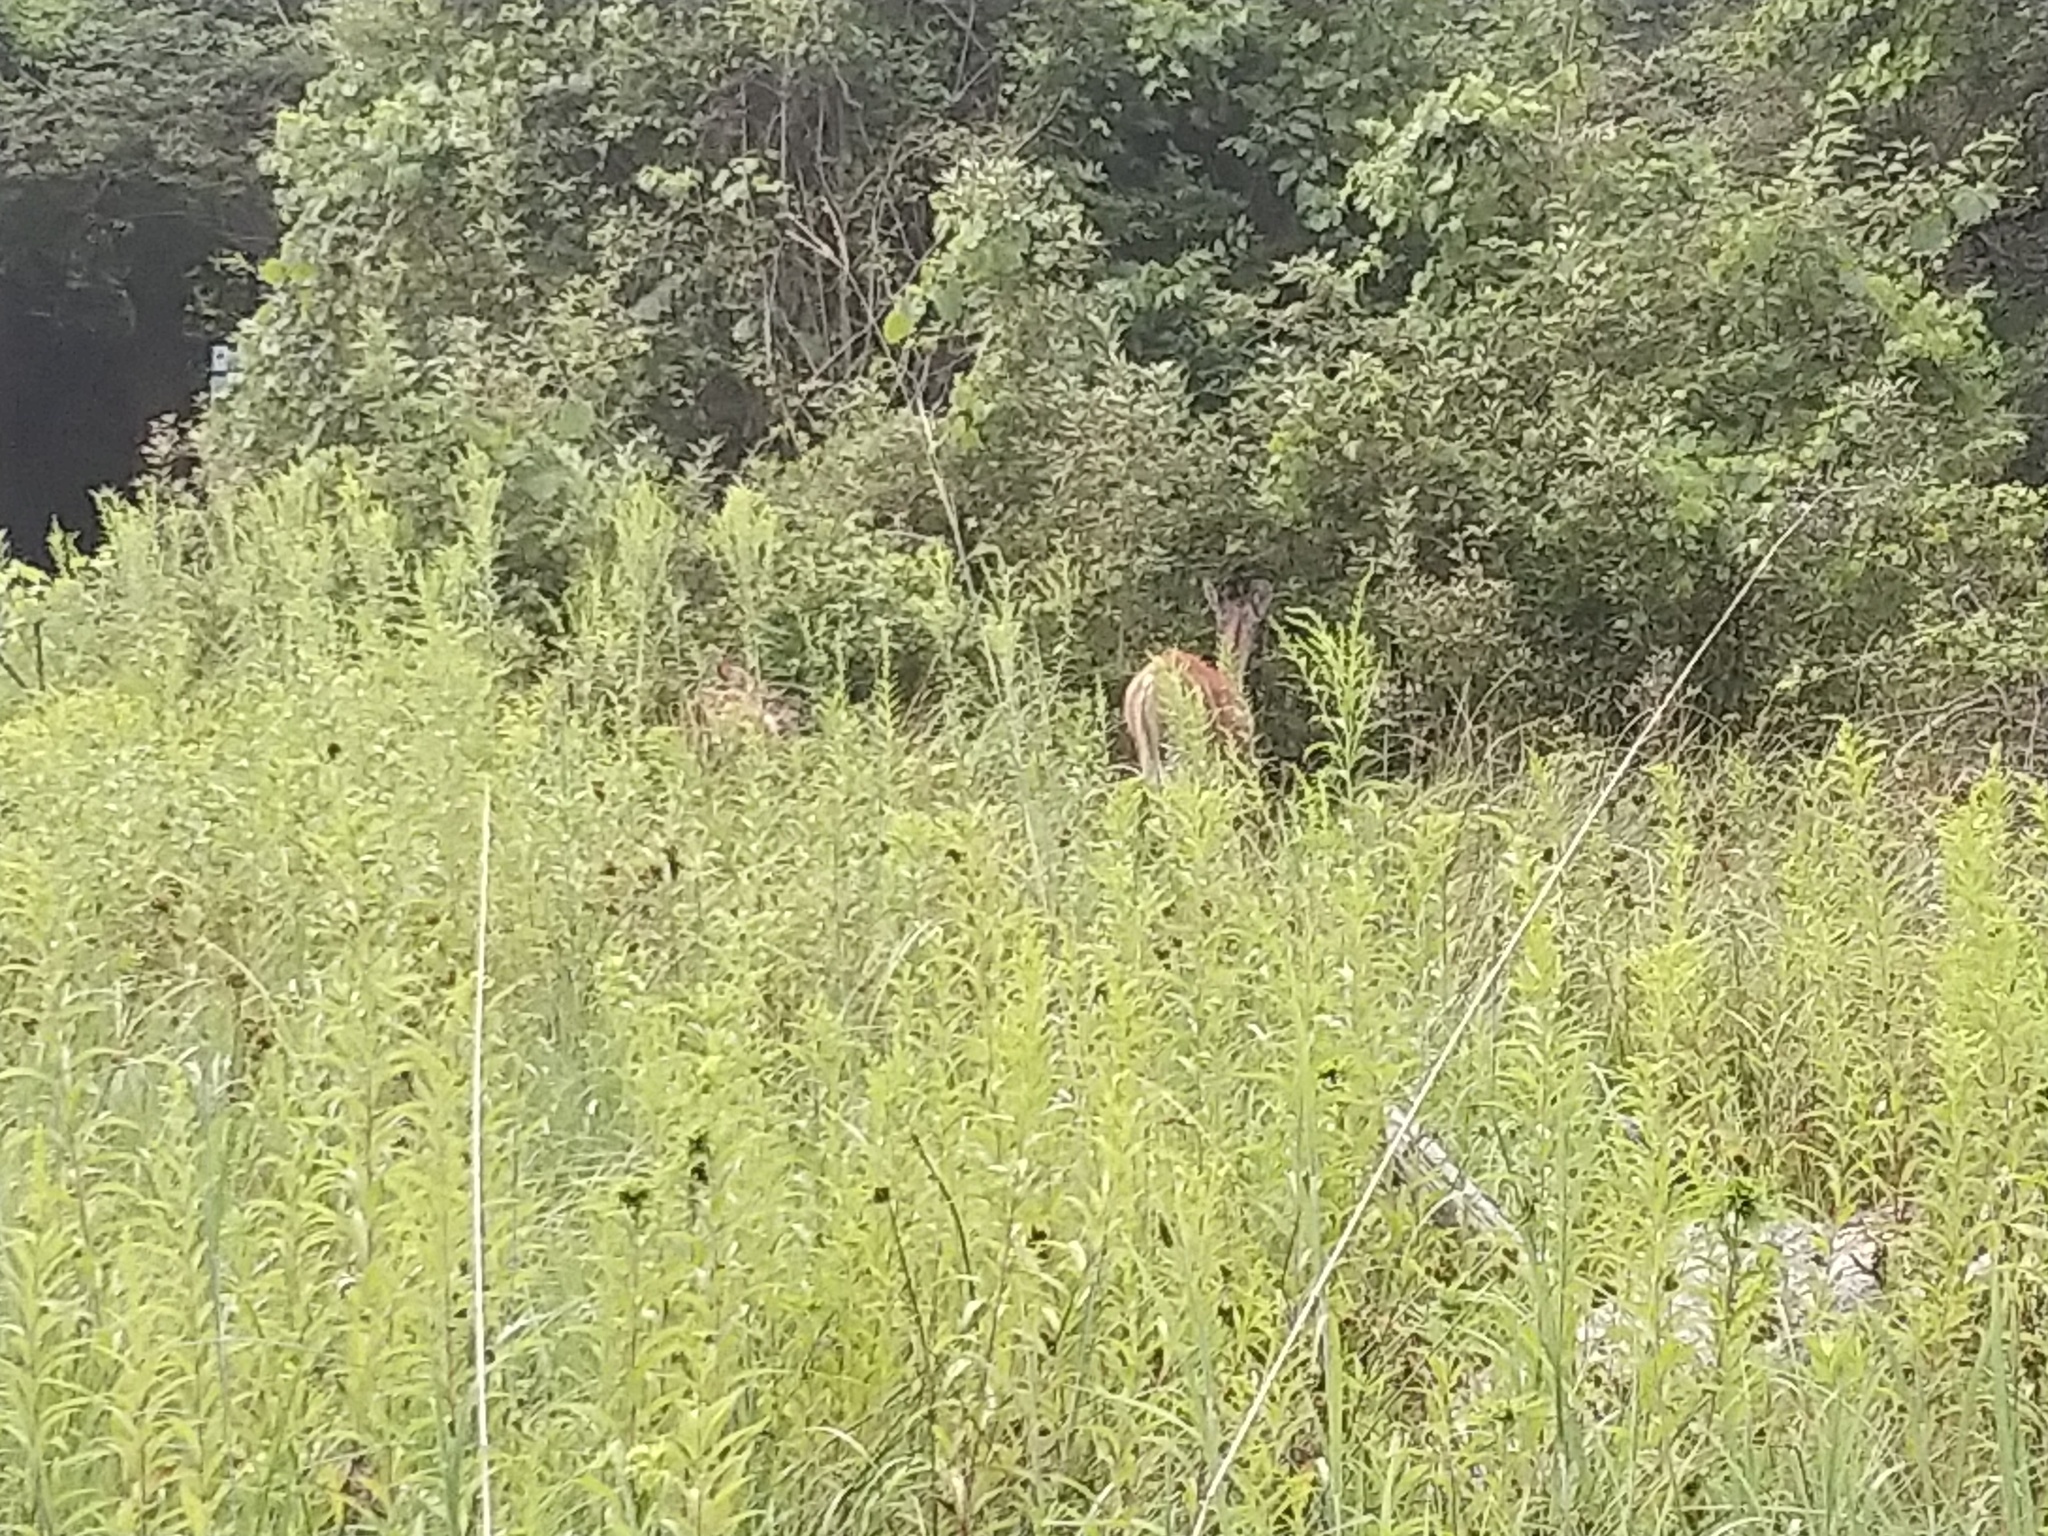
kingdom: Animalia
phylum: Chordata
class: Mammalia
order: Artiodactyla
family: Cervidae
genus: Odocoileus
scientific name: Odocoileus virginianus
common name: White-tailed deer
